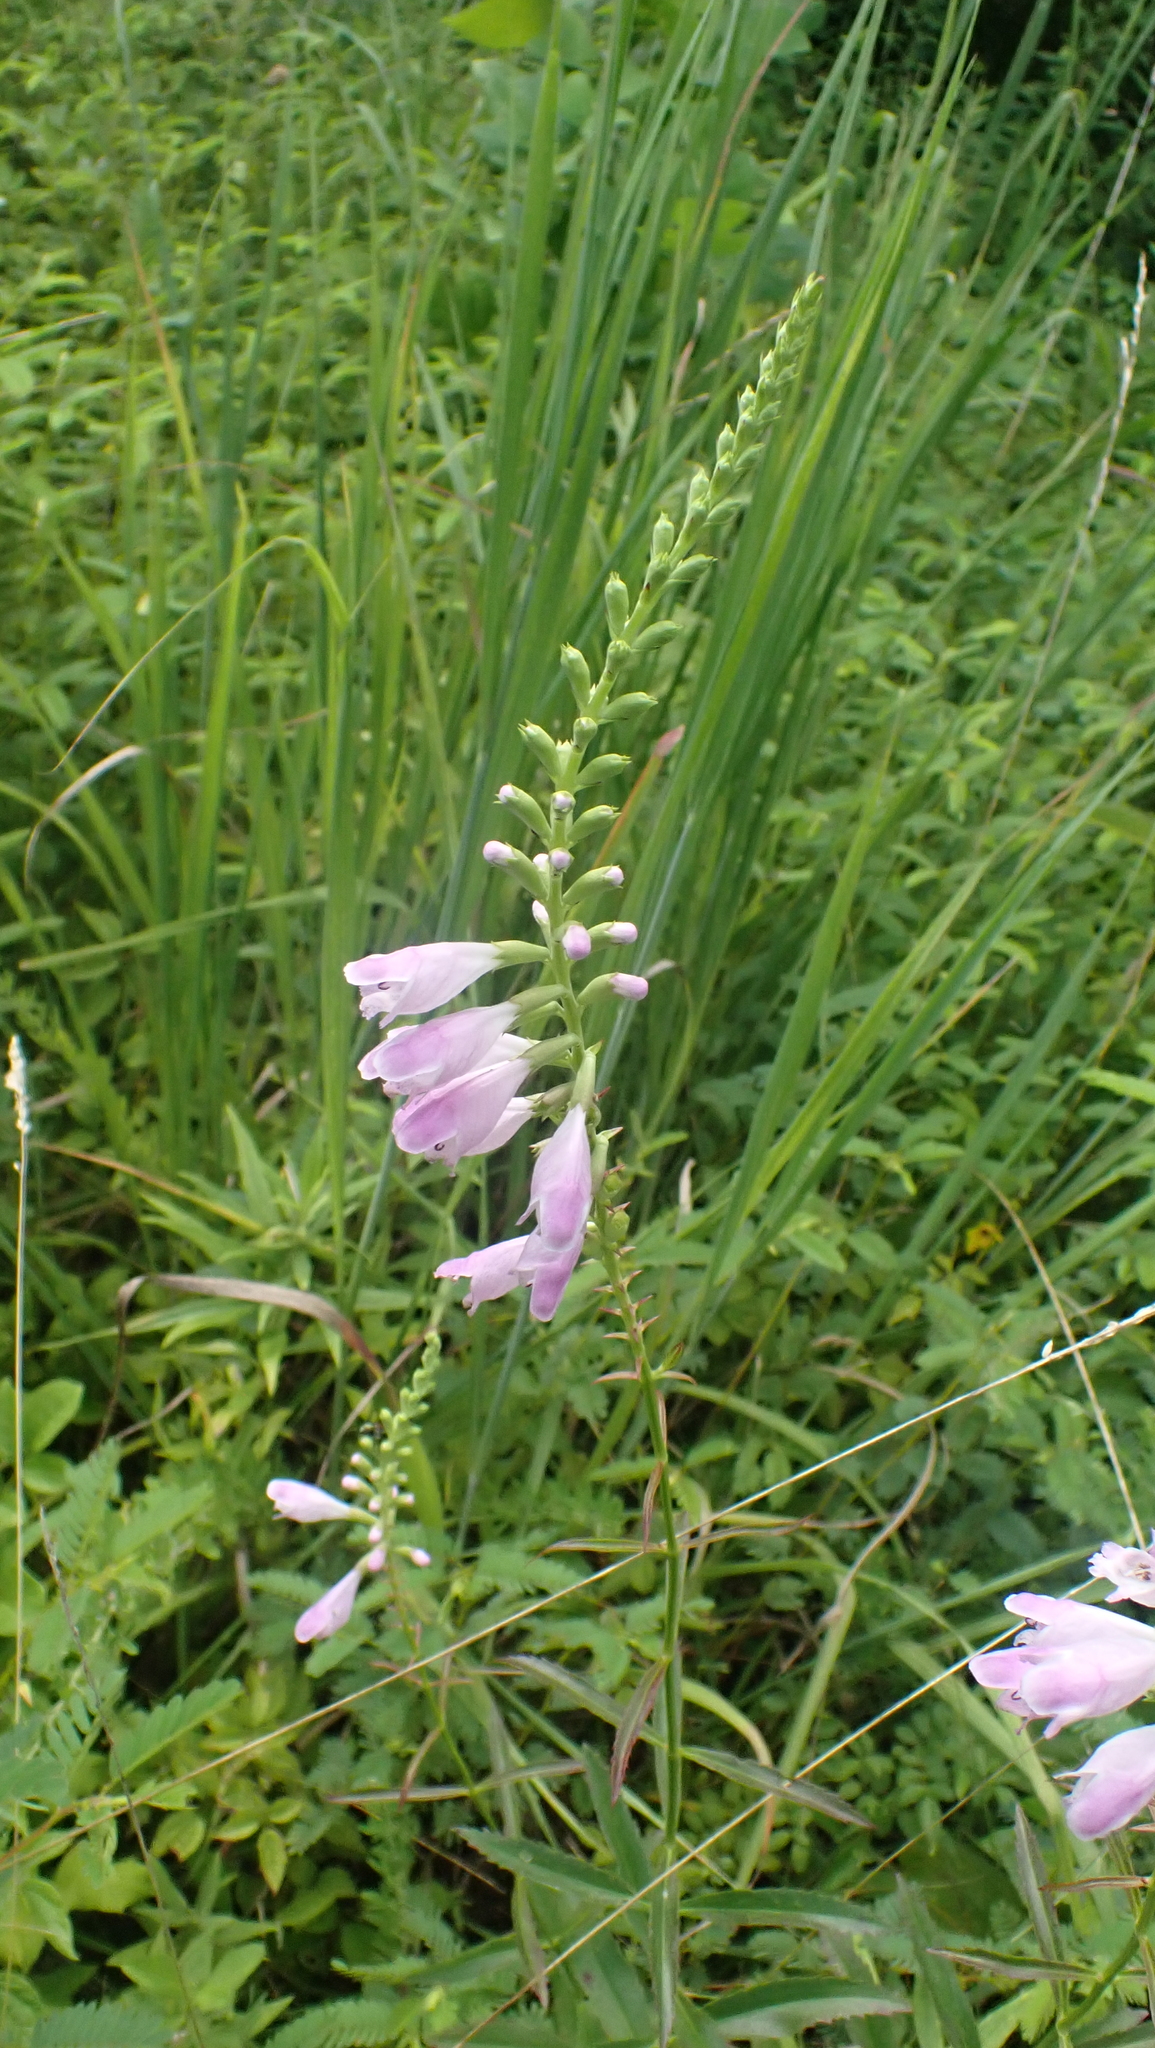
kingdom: Plantae
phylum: Tracheophyta
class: Magnoliopsida
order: Lamiales
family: Lamiaceae
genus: Physostegia
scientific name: Physostegia virginiana
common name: Obedient-plant
